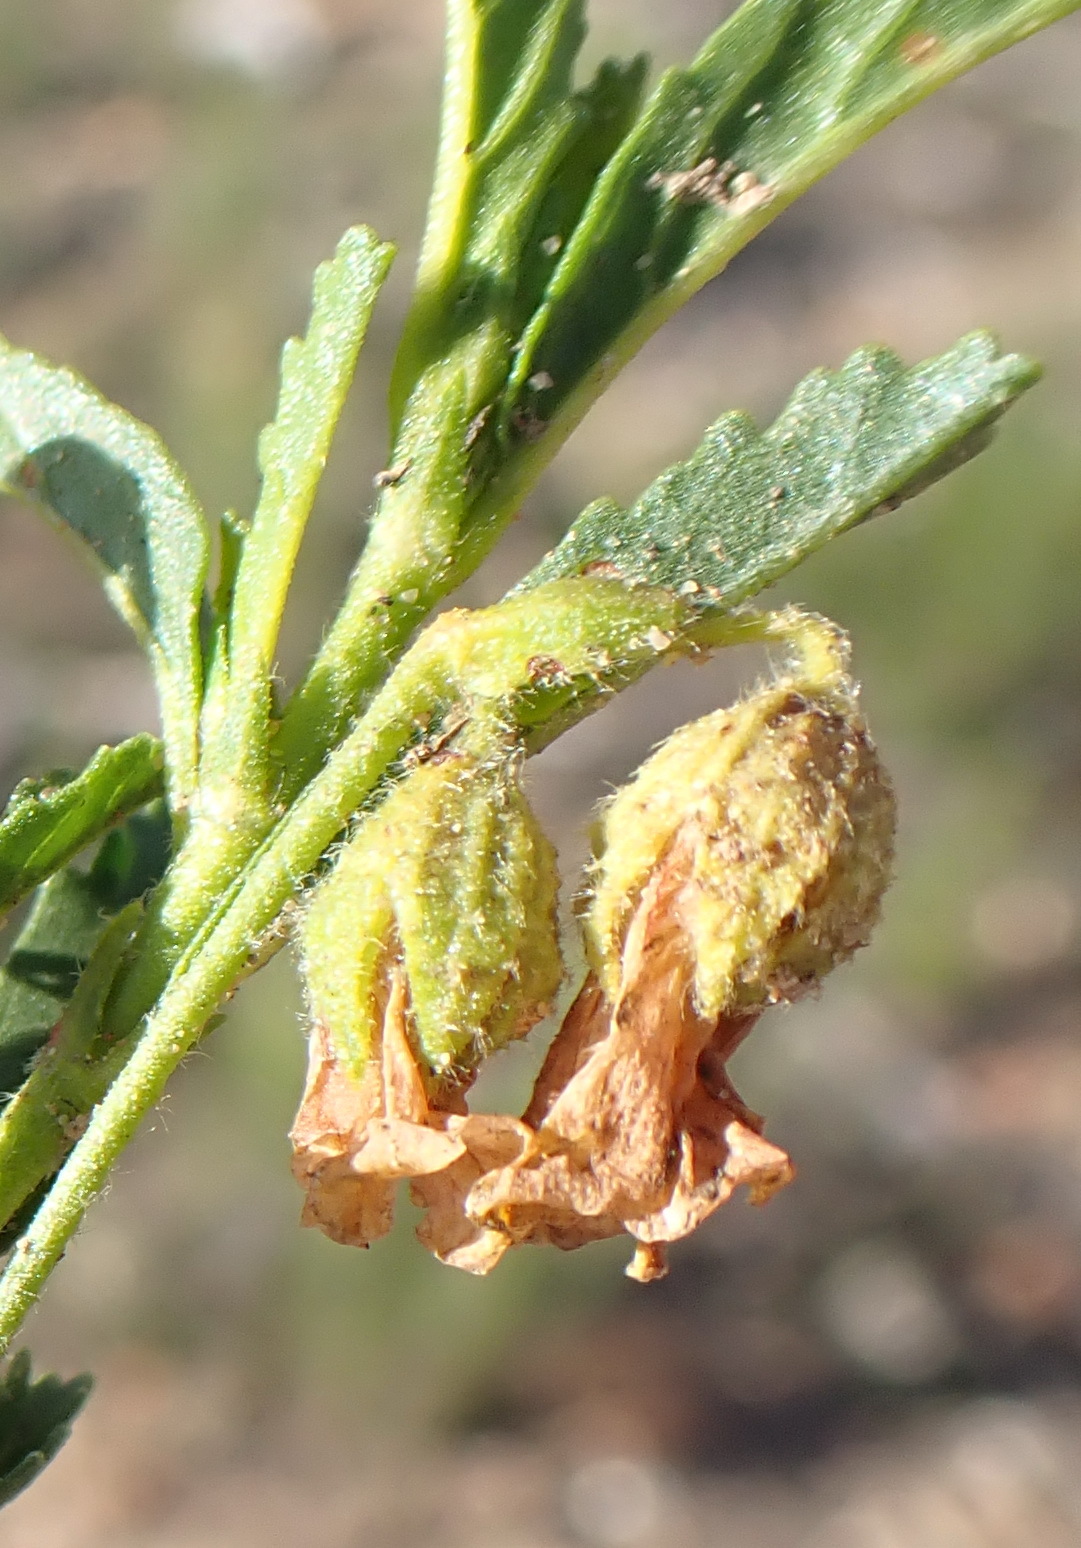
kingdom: Plantae
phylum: Tracheophyta
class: Magnoliopsida
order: Malvales
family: Malvaceae
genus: Hermannia
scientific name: Hermannia saccifera
